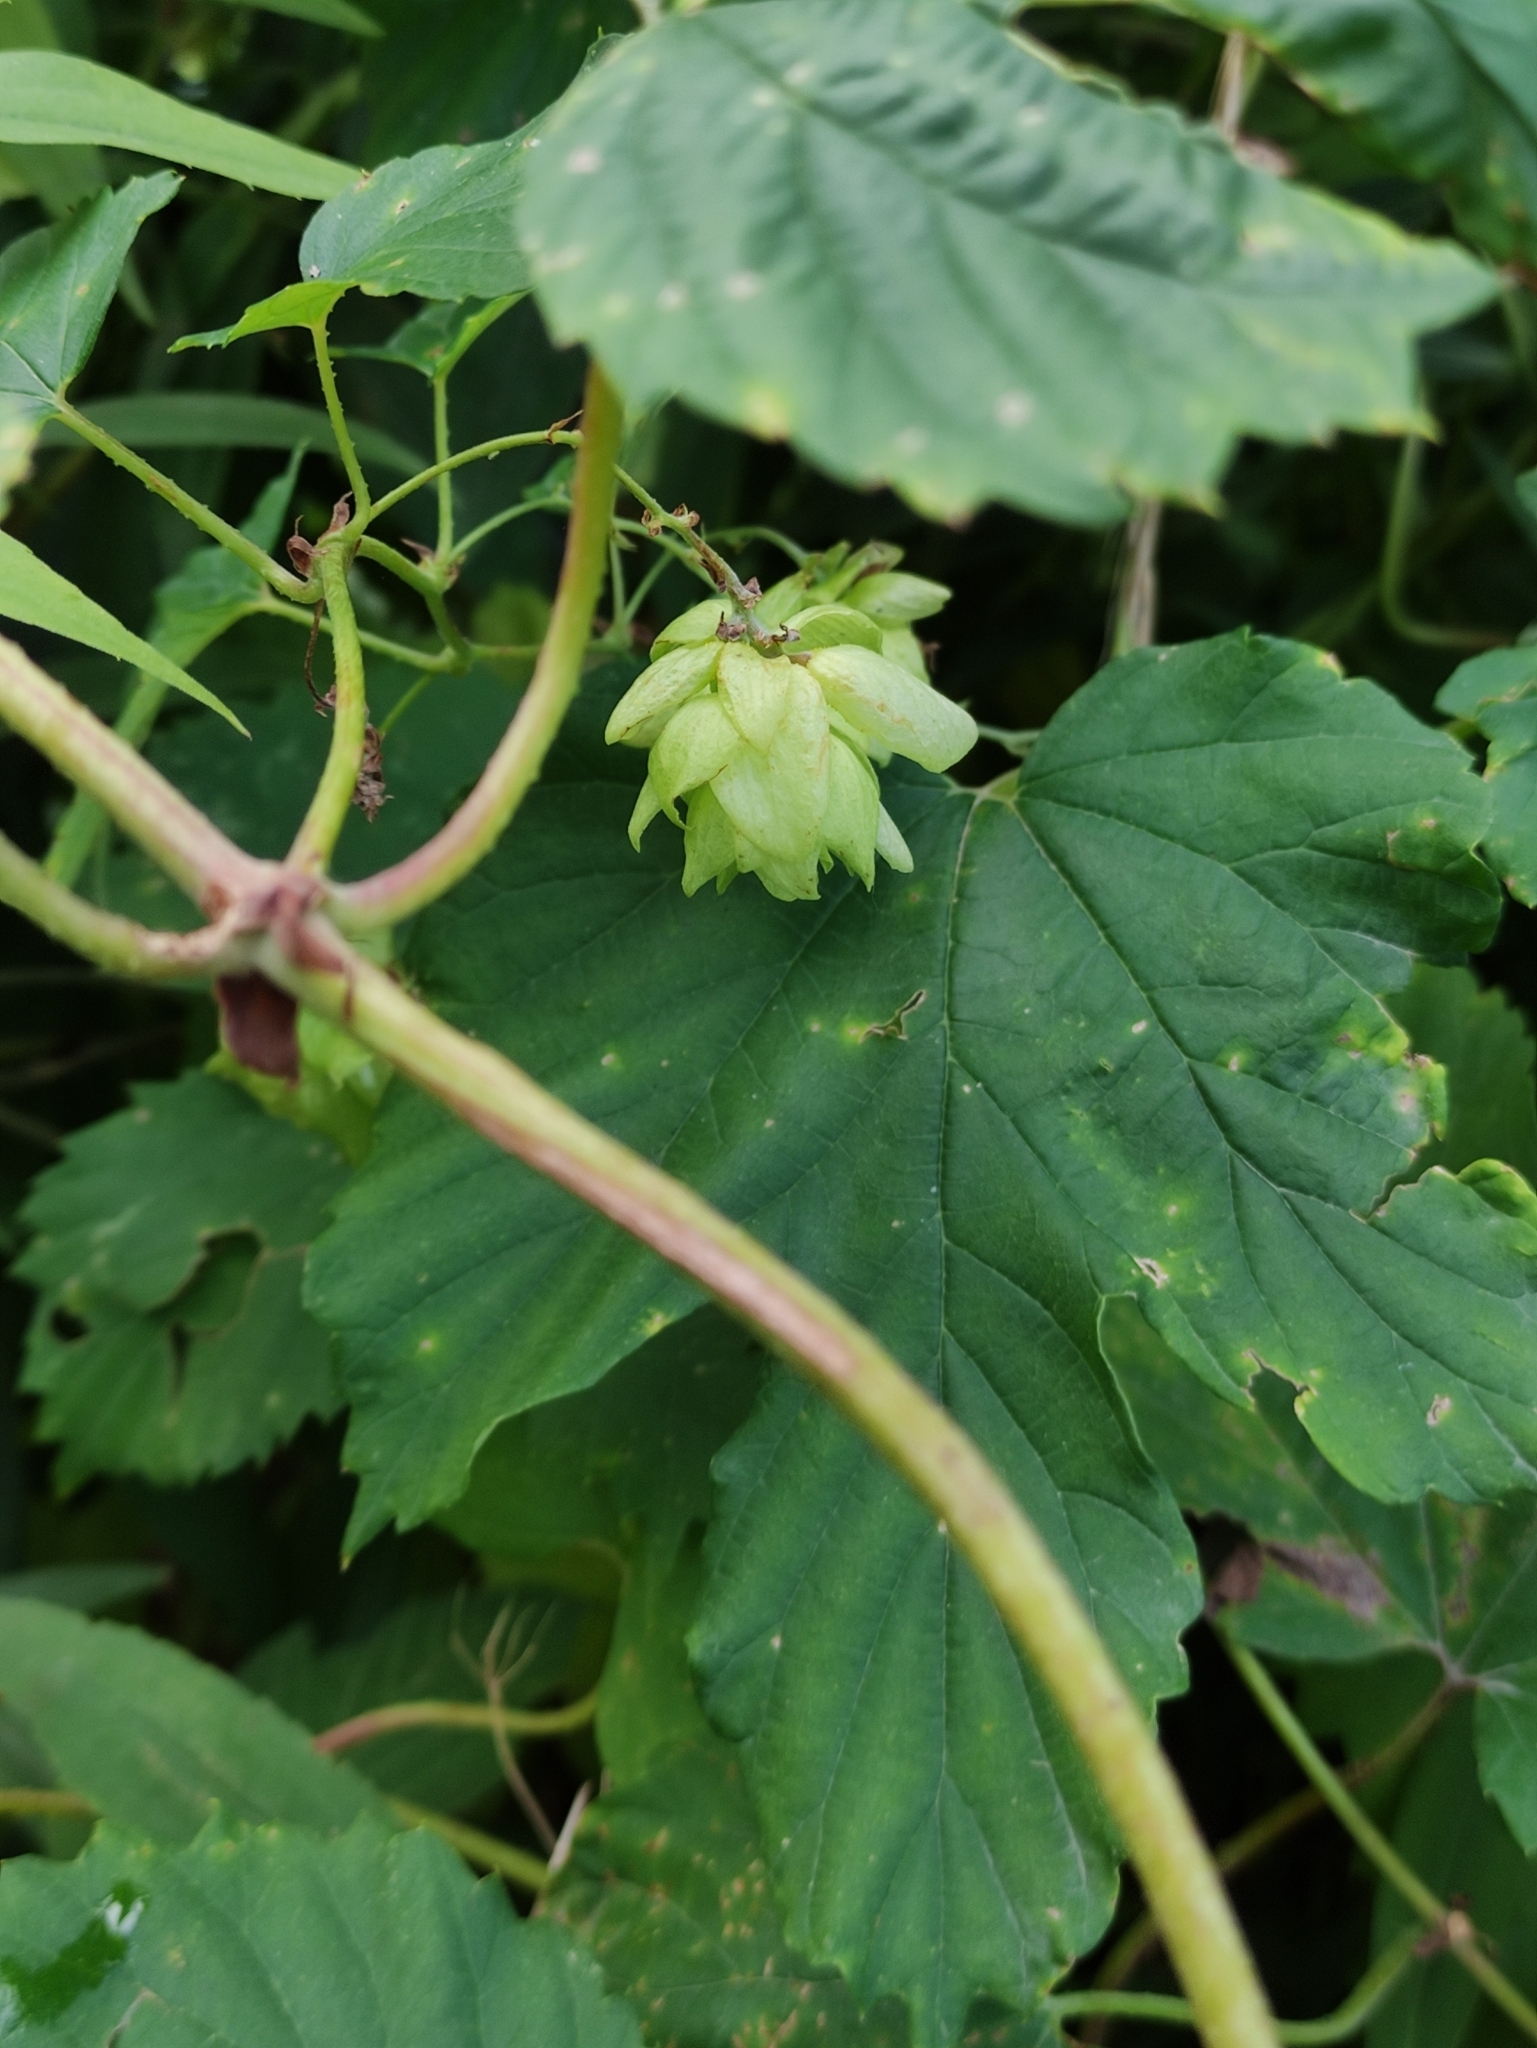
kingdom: Plantae
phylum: Tracheophyta
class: Magnoliopsida
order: Rosales
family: Cannabaceae
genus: Humulus
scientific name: Humulus lupulus
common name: Hop
